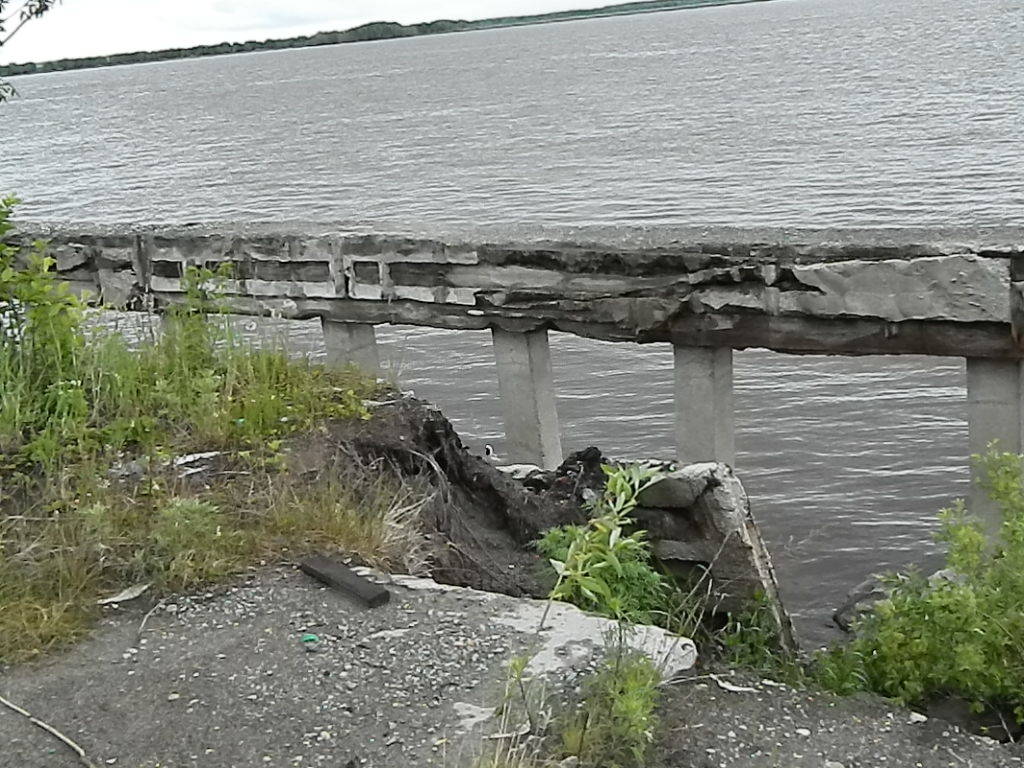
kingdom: Animalia
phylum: Chordata
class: Aves
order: Passeriformes
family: Motacillidae
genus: Motacilla
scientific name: Motacilla alba
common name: White wagtail
